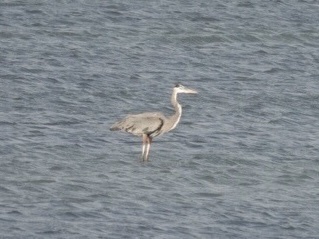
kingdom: Animalia
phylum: Chordata
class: Aves
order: Pelecaniformes
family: Ardeidae
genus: Ardea
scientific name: Ardea herodias
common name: Great blue heron
